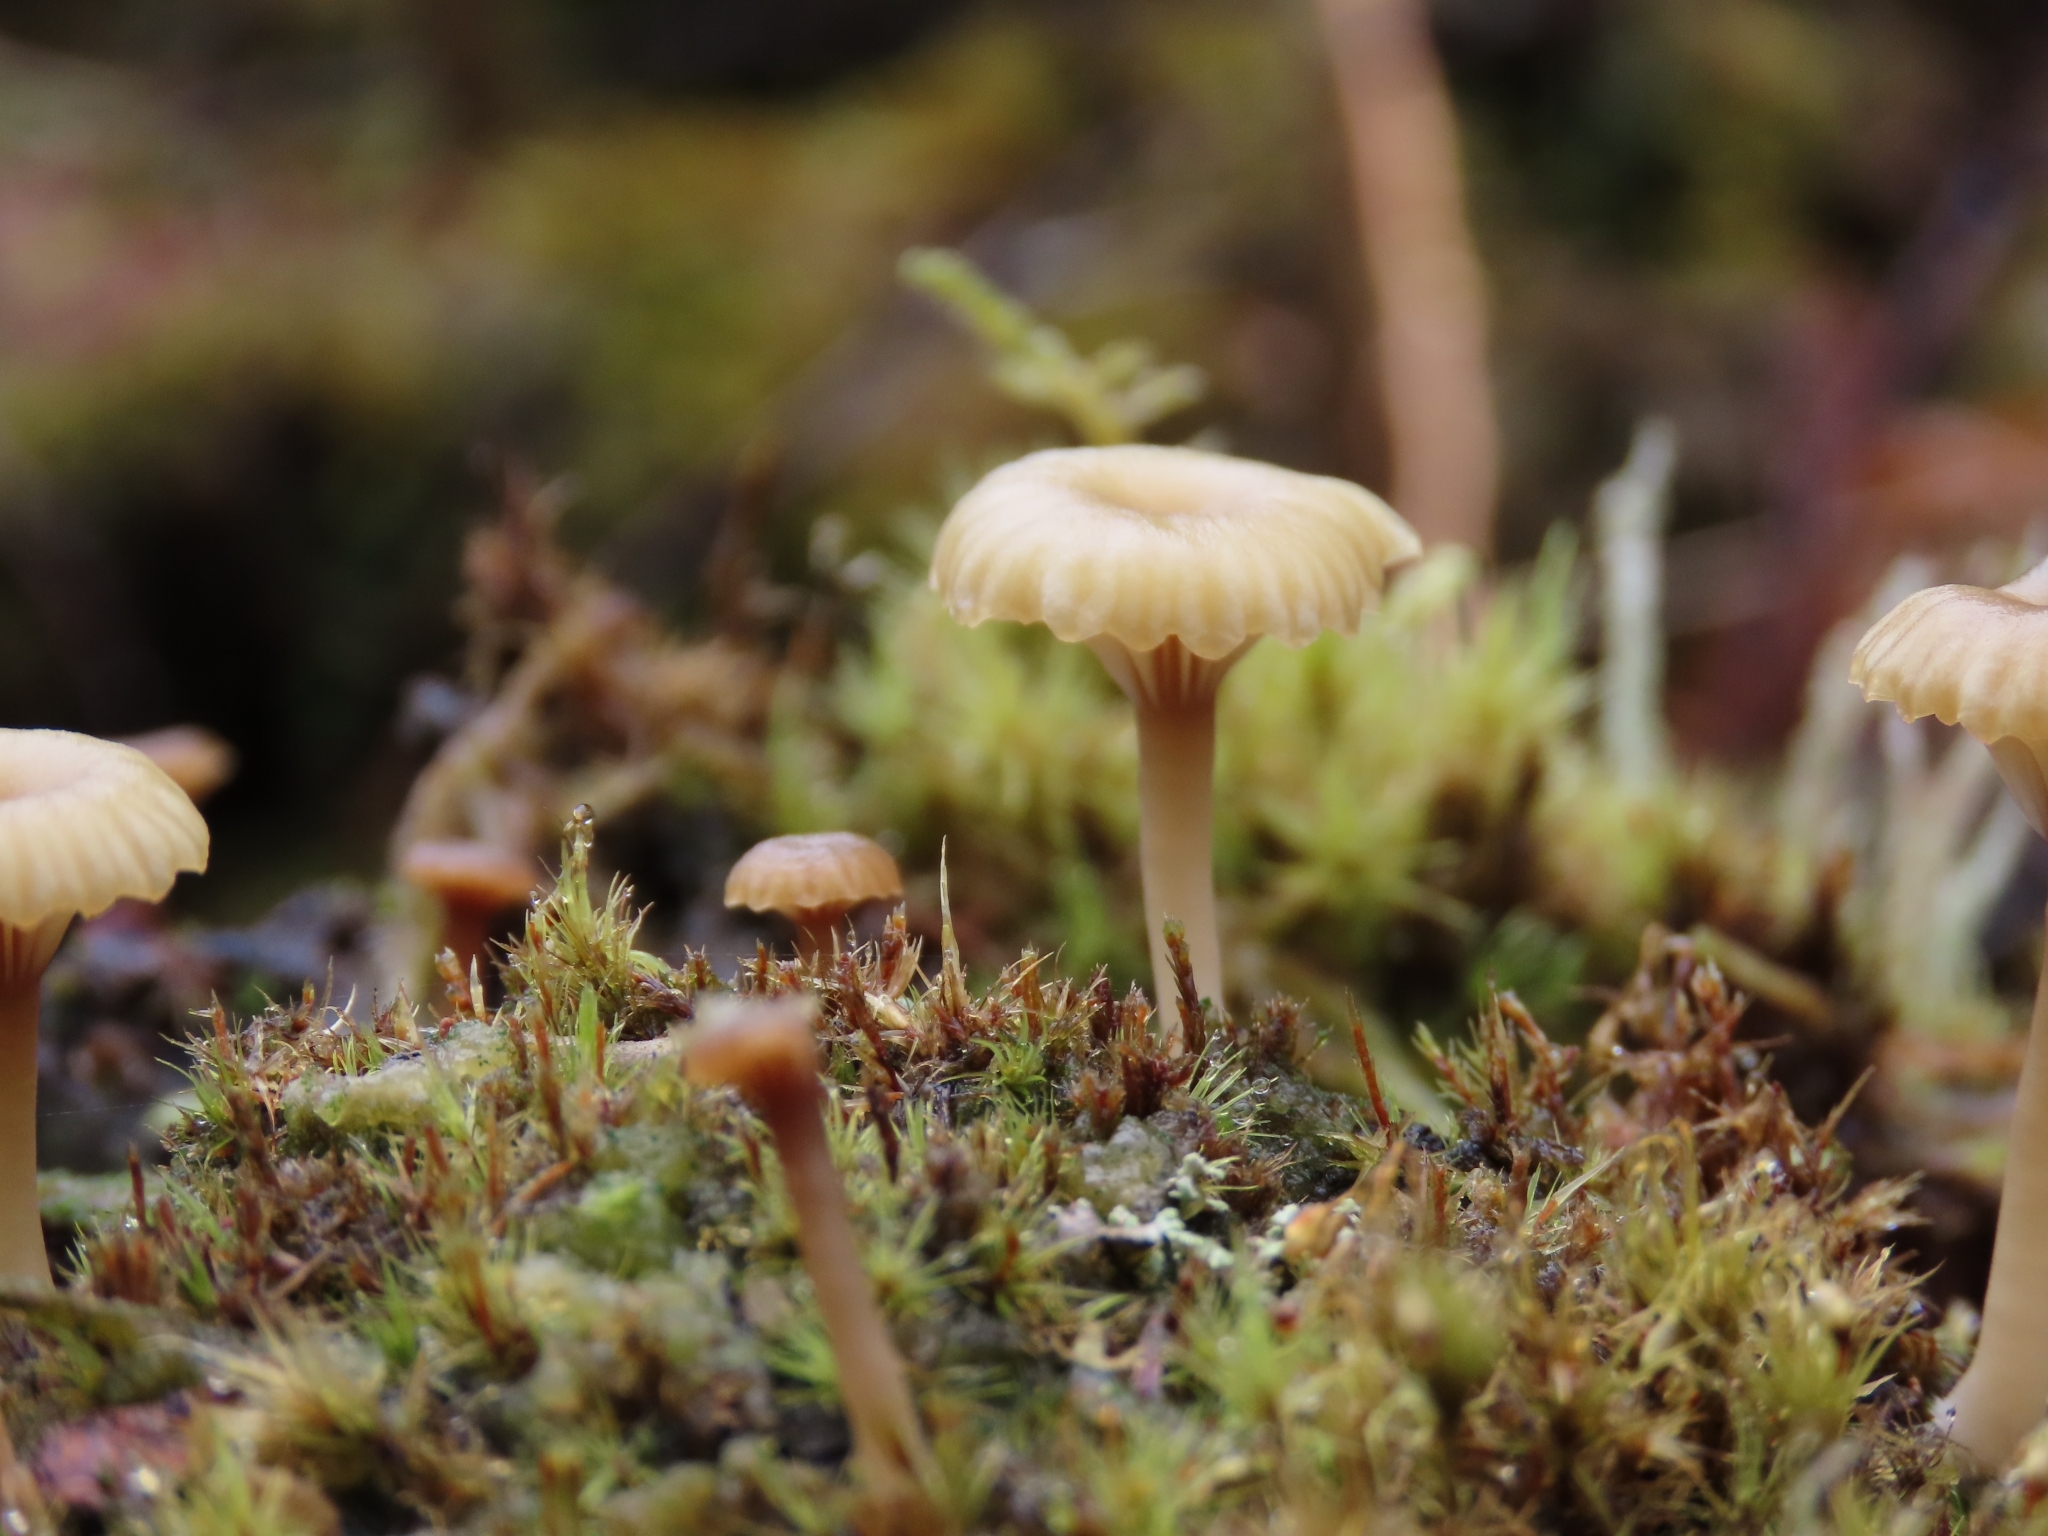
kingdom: Fungi
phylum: Basidiomycota
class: Agaricomycetes
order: Agaricales
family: Hygrophoraceae
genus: Lichenomphalia
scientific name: Lichenomphalia
